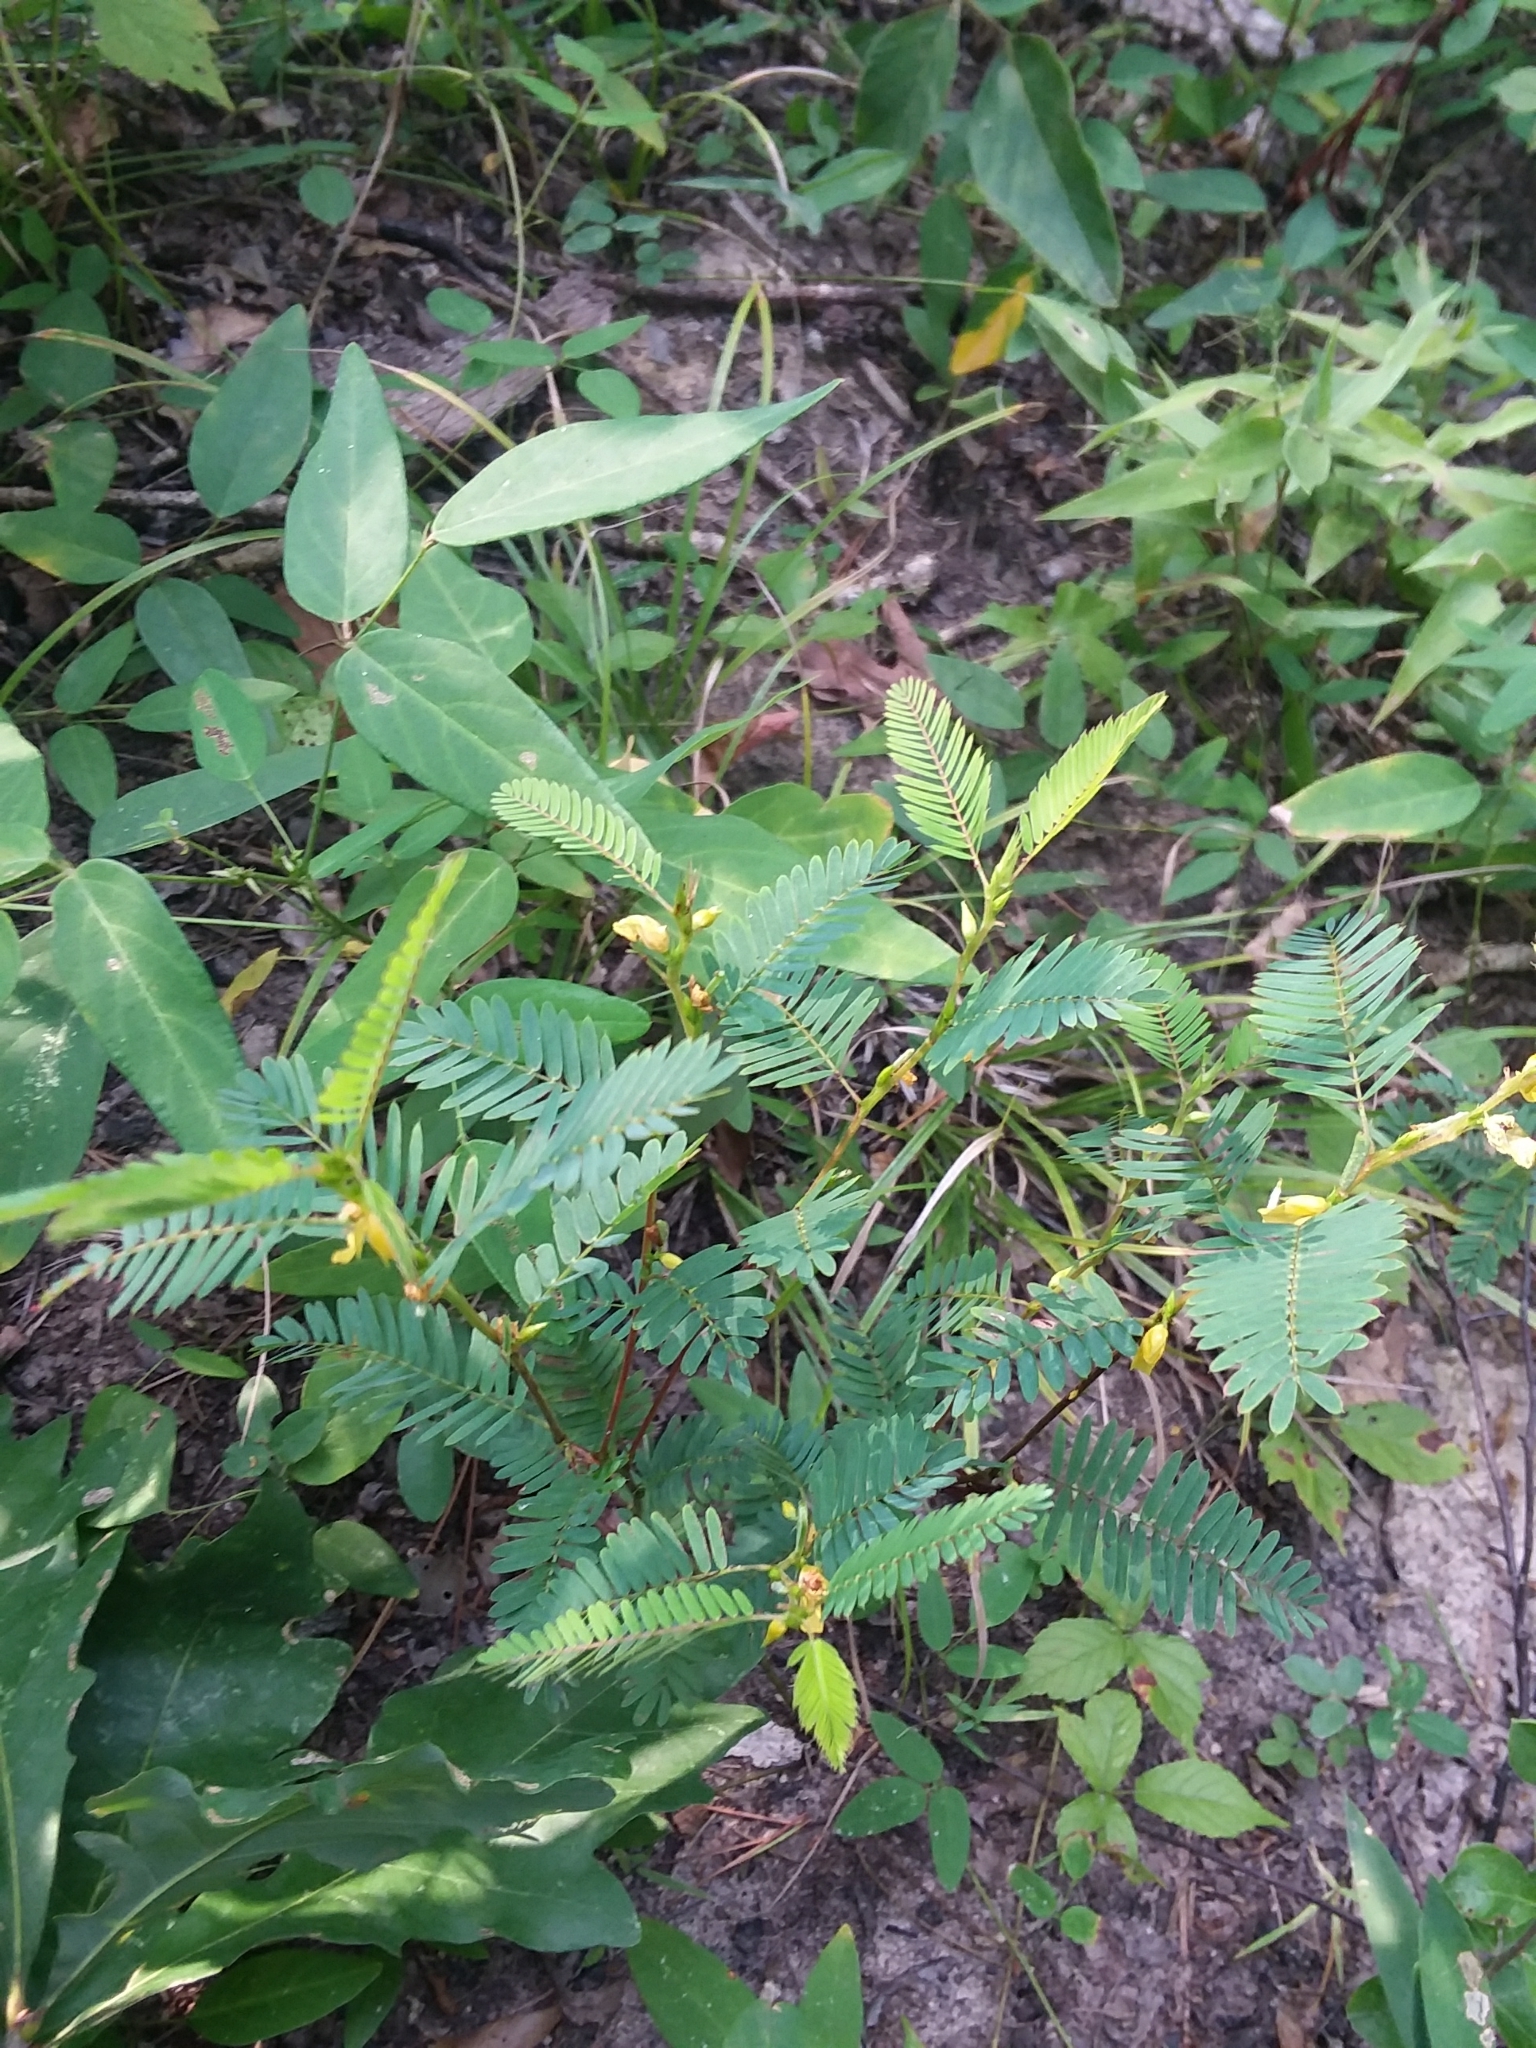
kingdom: Plantae
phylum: Tracheophyta
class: Magnoliopsida
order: Fabales
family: Fabaceae
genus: Chamaecrista
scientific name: Chamaecrista nictitans
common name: Sensitive cassia
